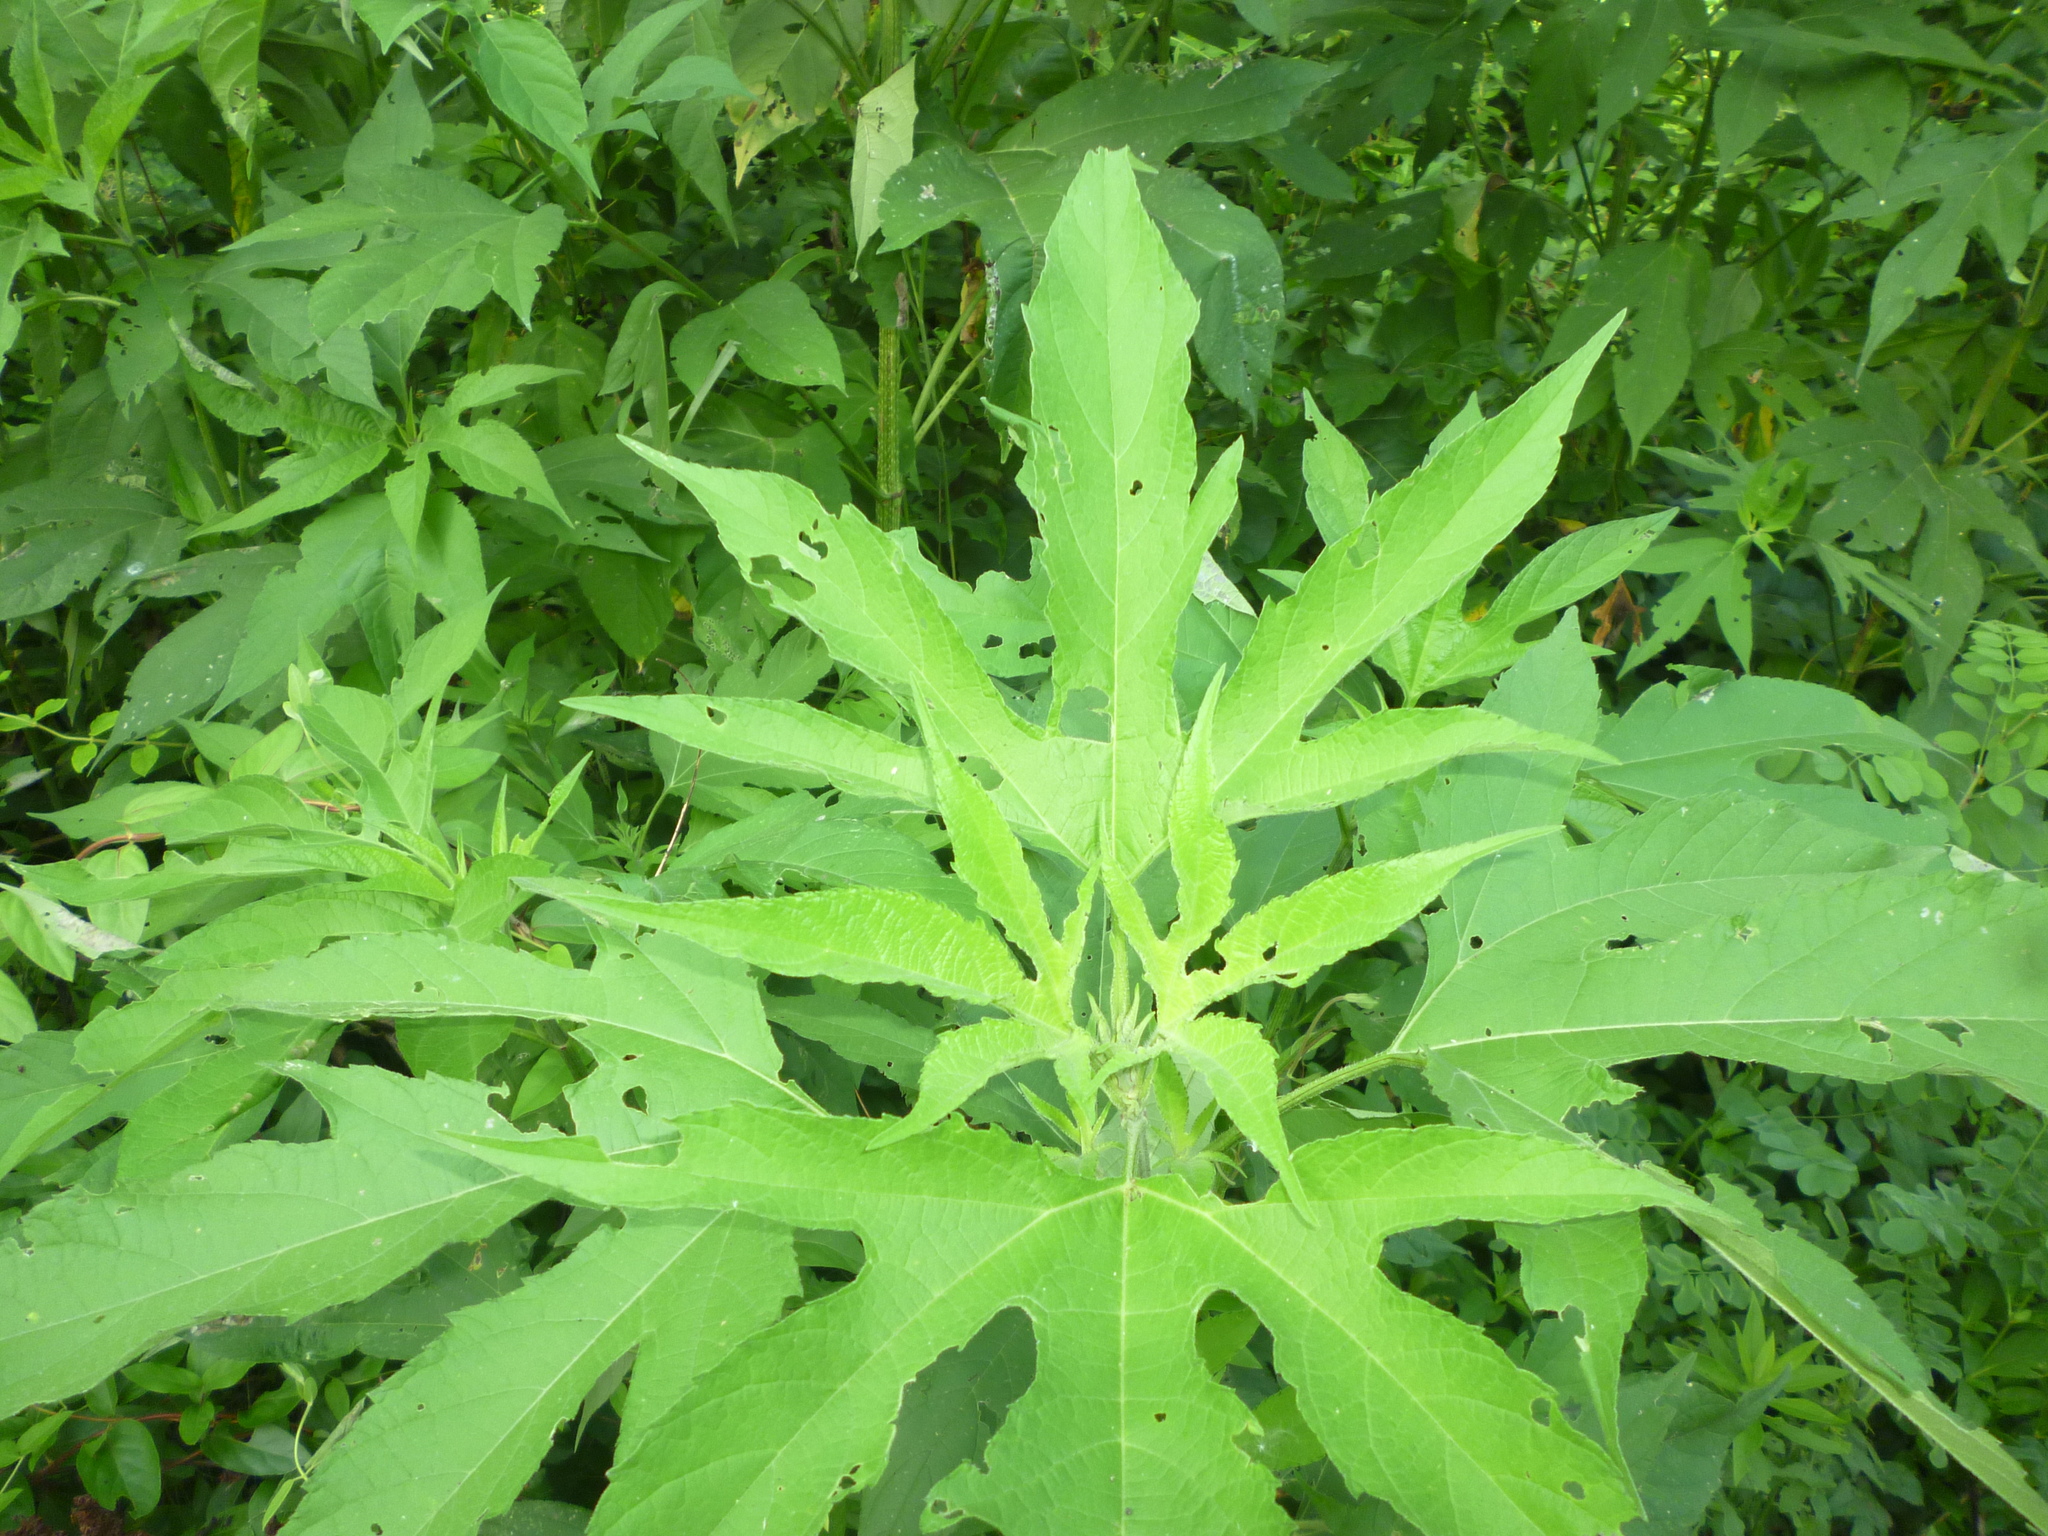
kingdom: Plantae
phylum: Tracheophyta
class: Magnoliopsida
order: Asterales
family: Asteraceae
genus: Ambrosia
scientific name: Ambrosia trifida
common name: Giant ragweed
